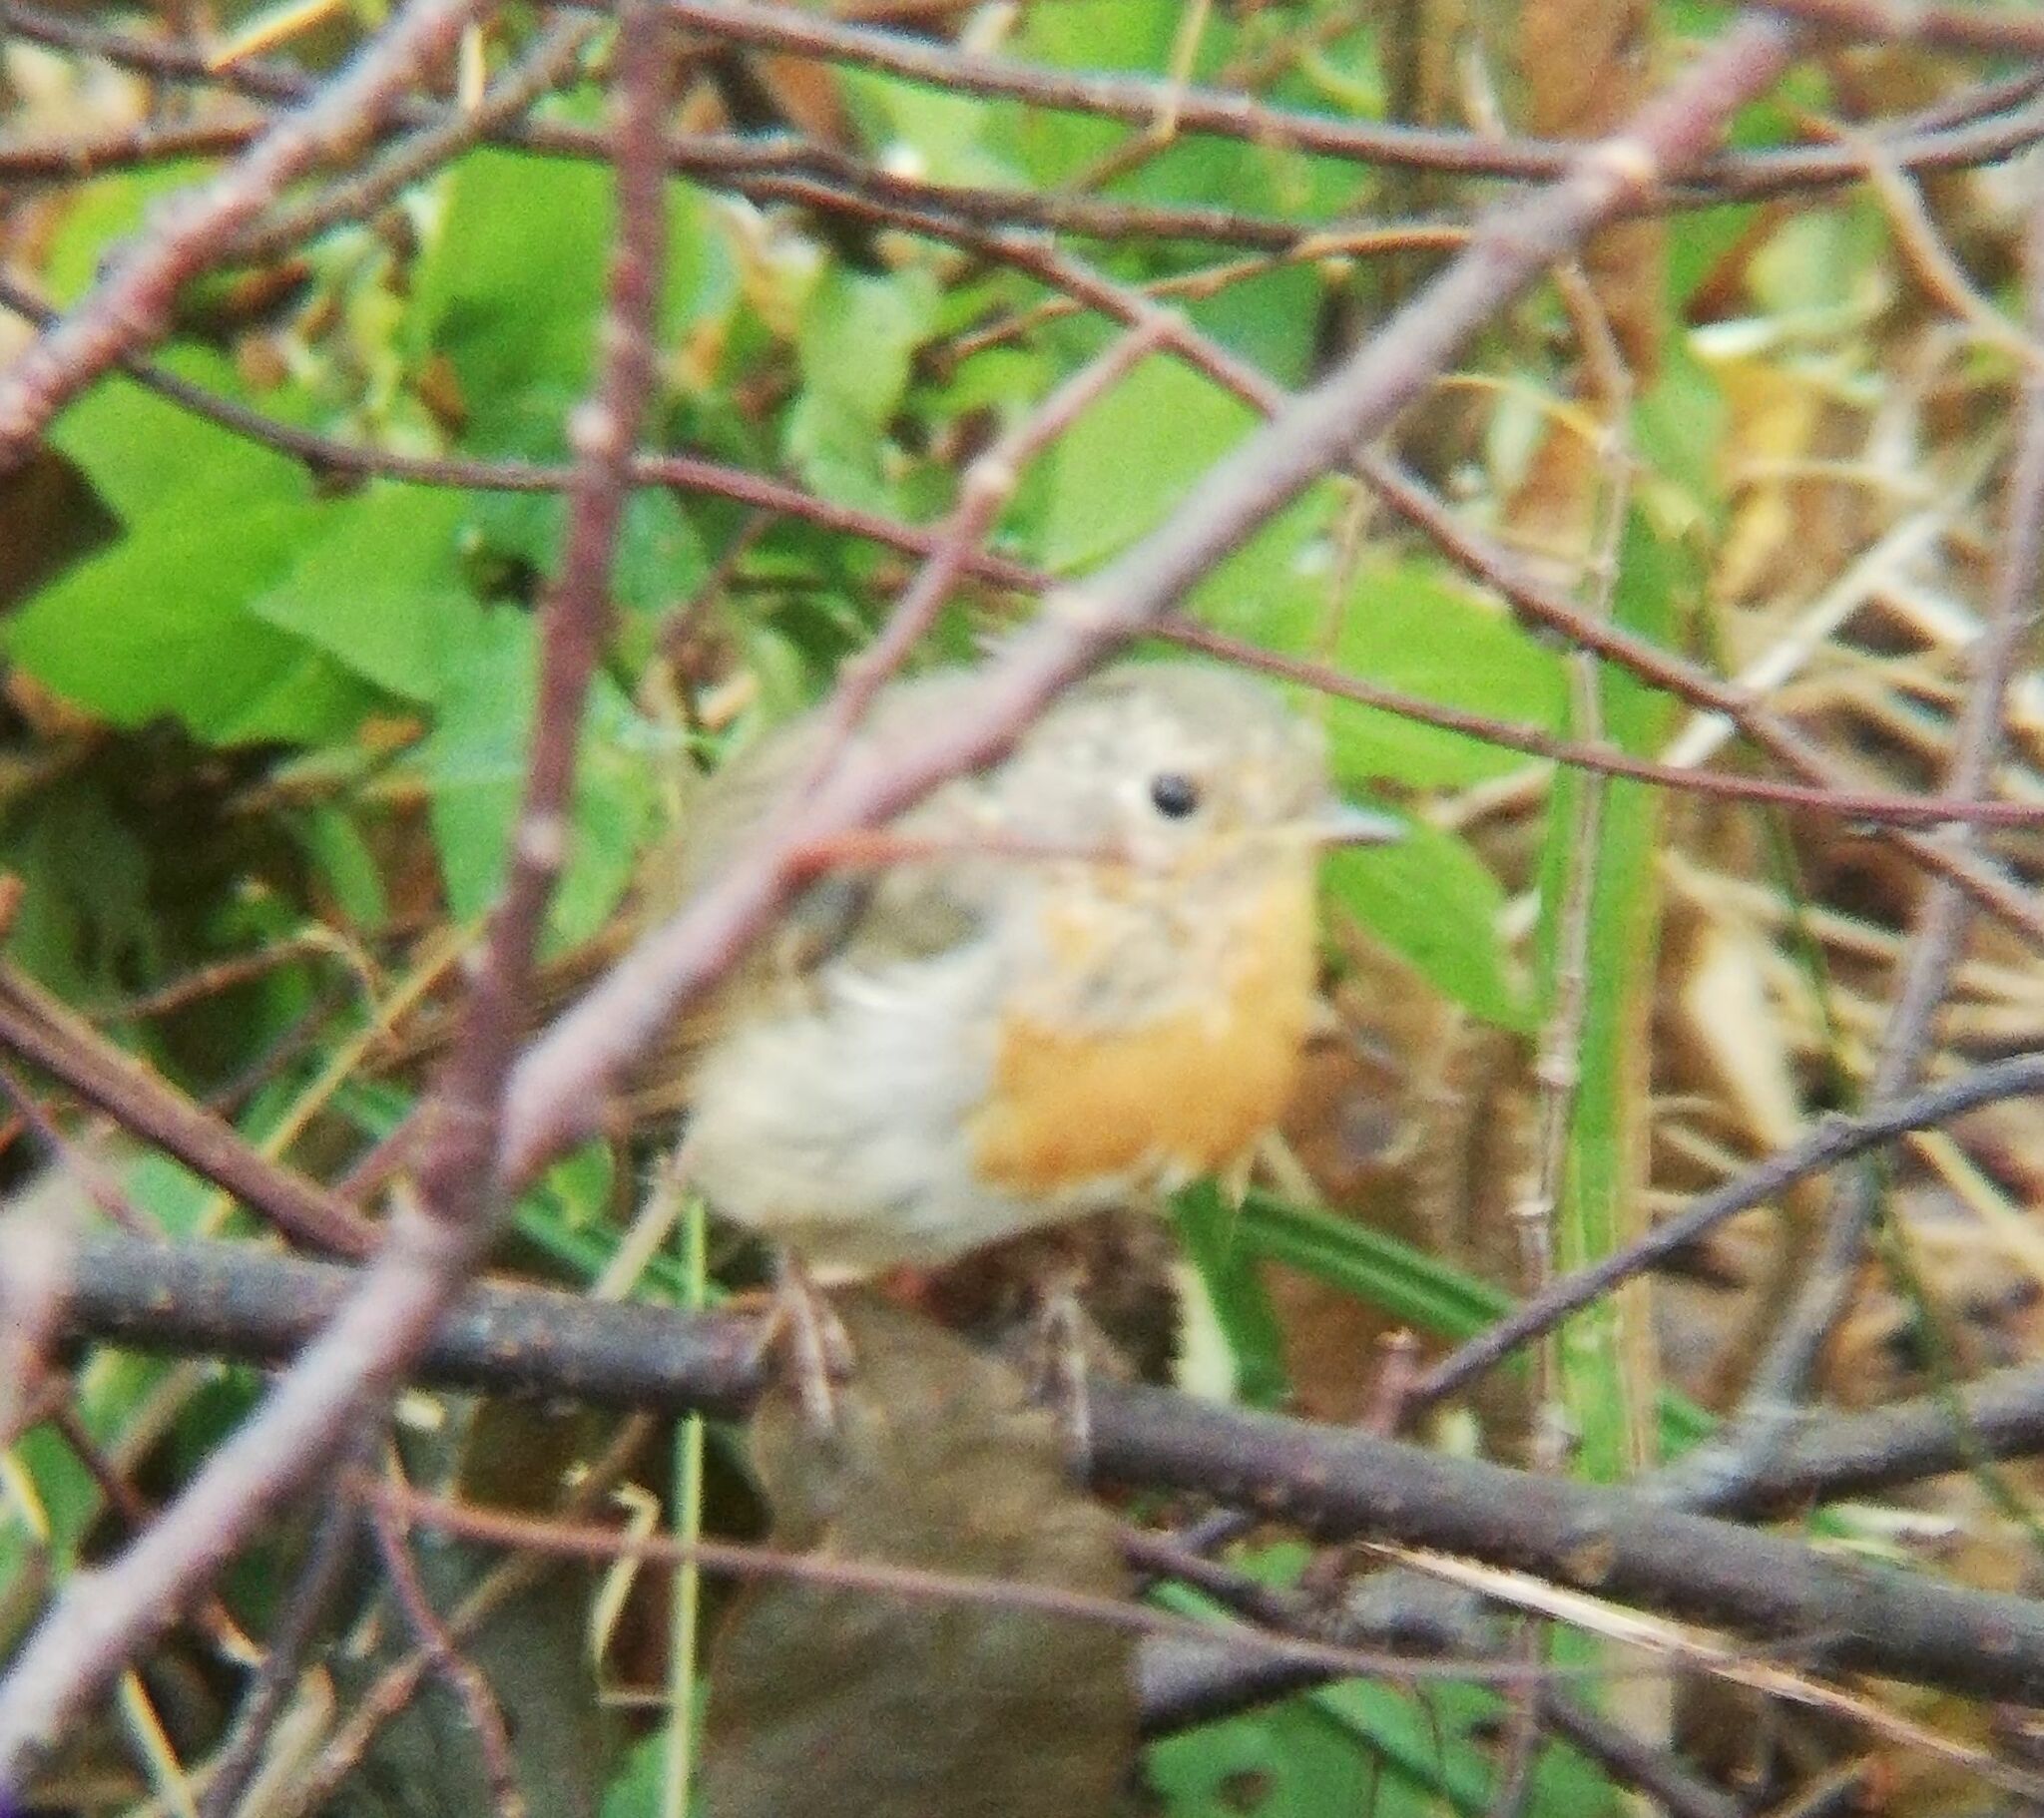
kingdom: Animalia
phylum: Chordata
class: Aves
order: Passeriformes
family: Muscicapidae
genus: Erithacus
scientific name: Erithacus rubecula
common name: European robin
